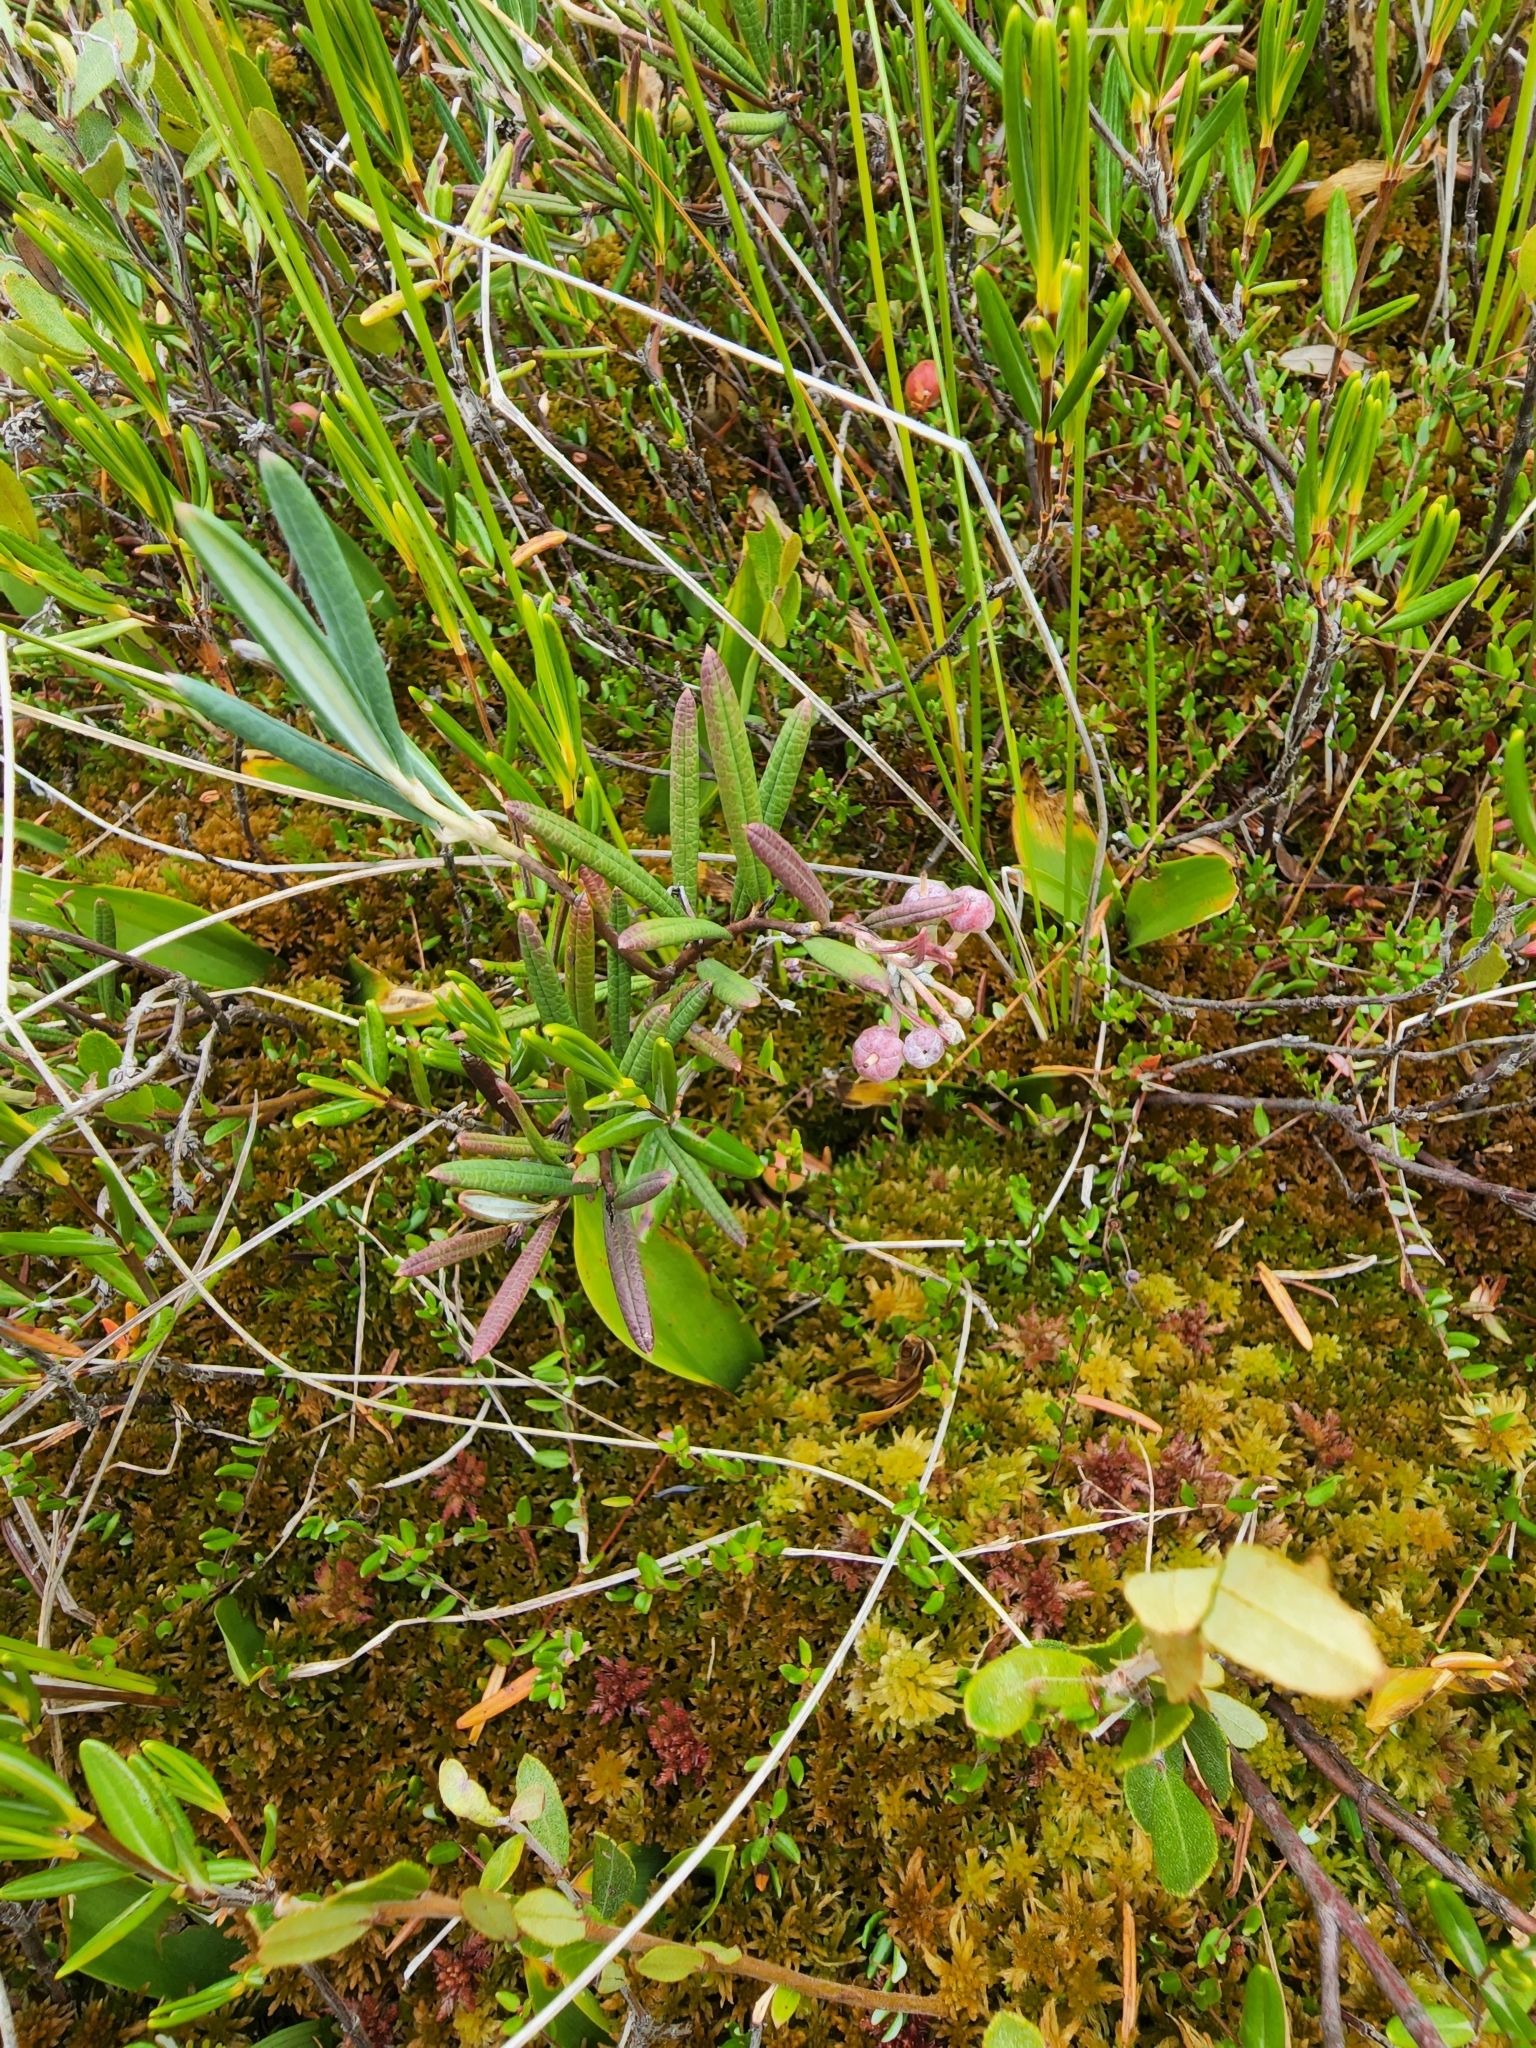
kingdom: Plantae
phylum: Tracheophyta
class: Magnoliopsida
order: Ericales
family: Ericaceae
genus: Andromeda
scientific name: Andromeda polifolia
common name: Bog-rosemary
